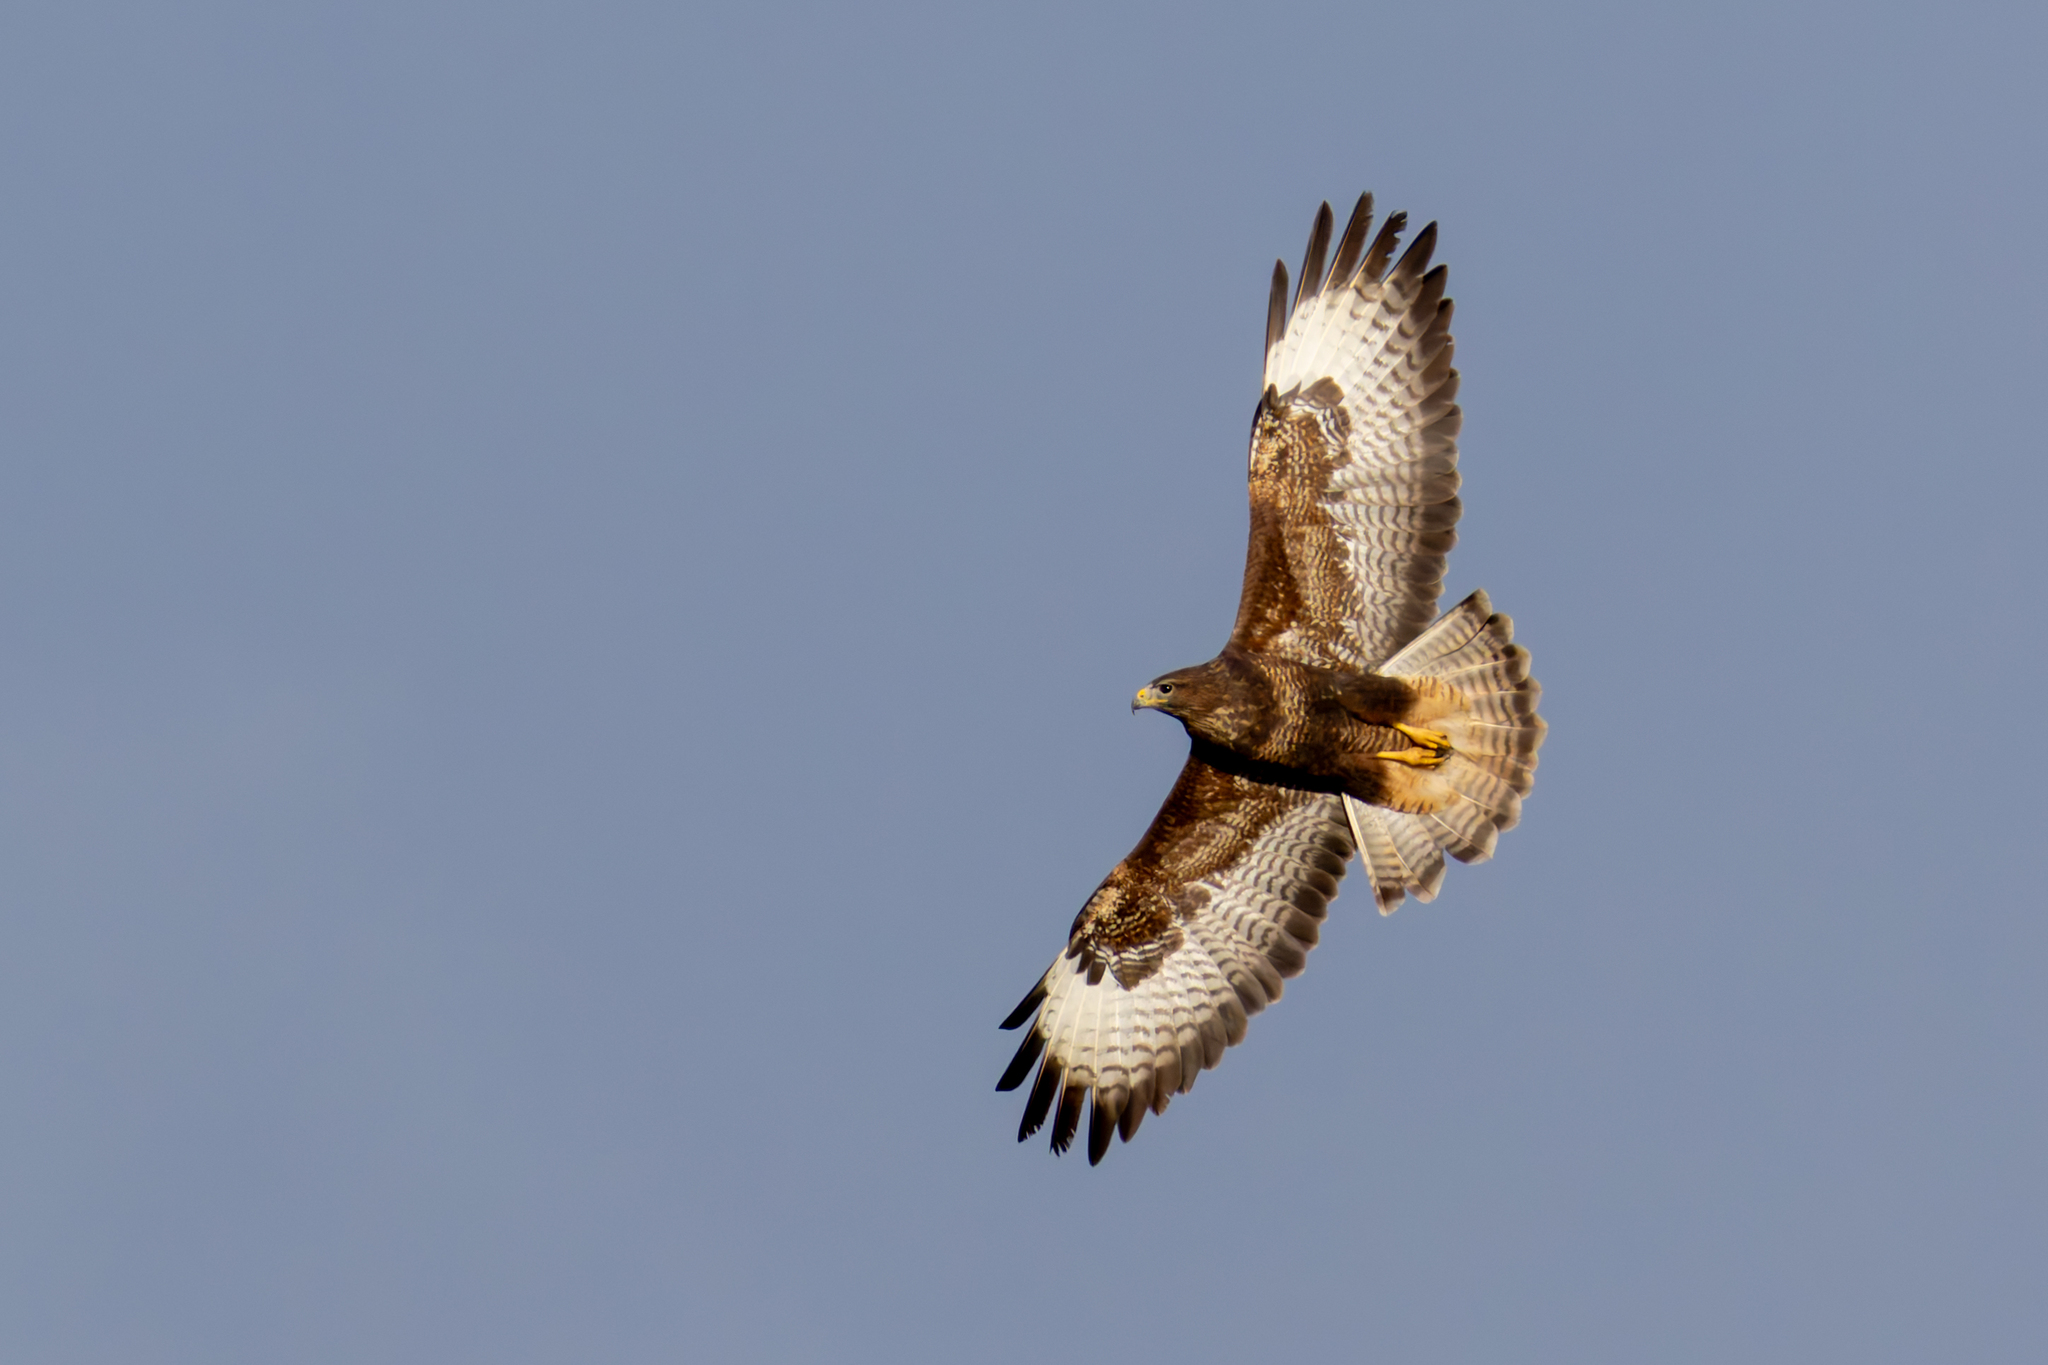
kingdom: Animalia
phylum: Chordata
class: Aves
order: Accipitriformes
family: Accipitridae
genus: Buteo
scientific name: Buteo buteo
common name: Common buzzard
